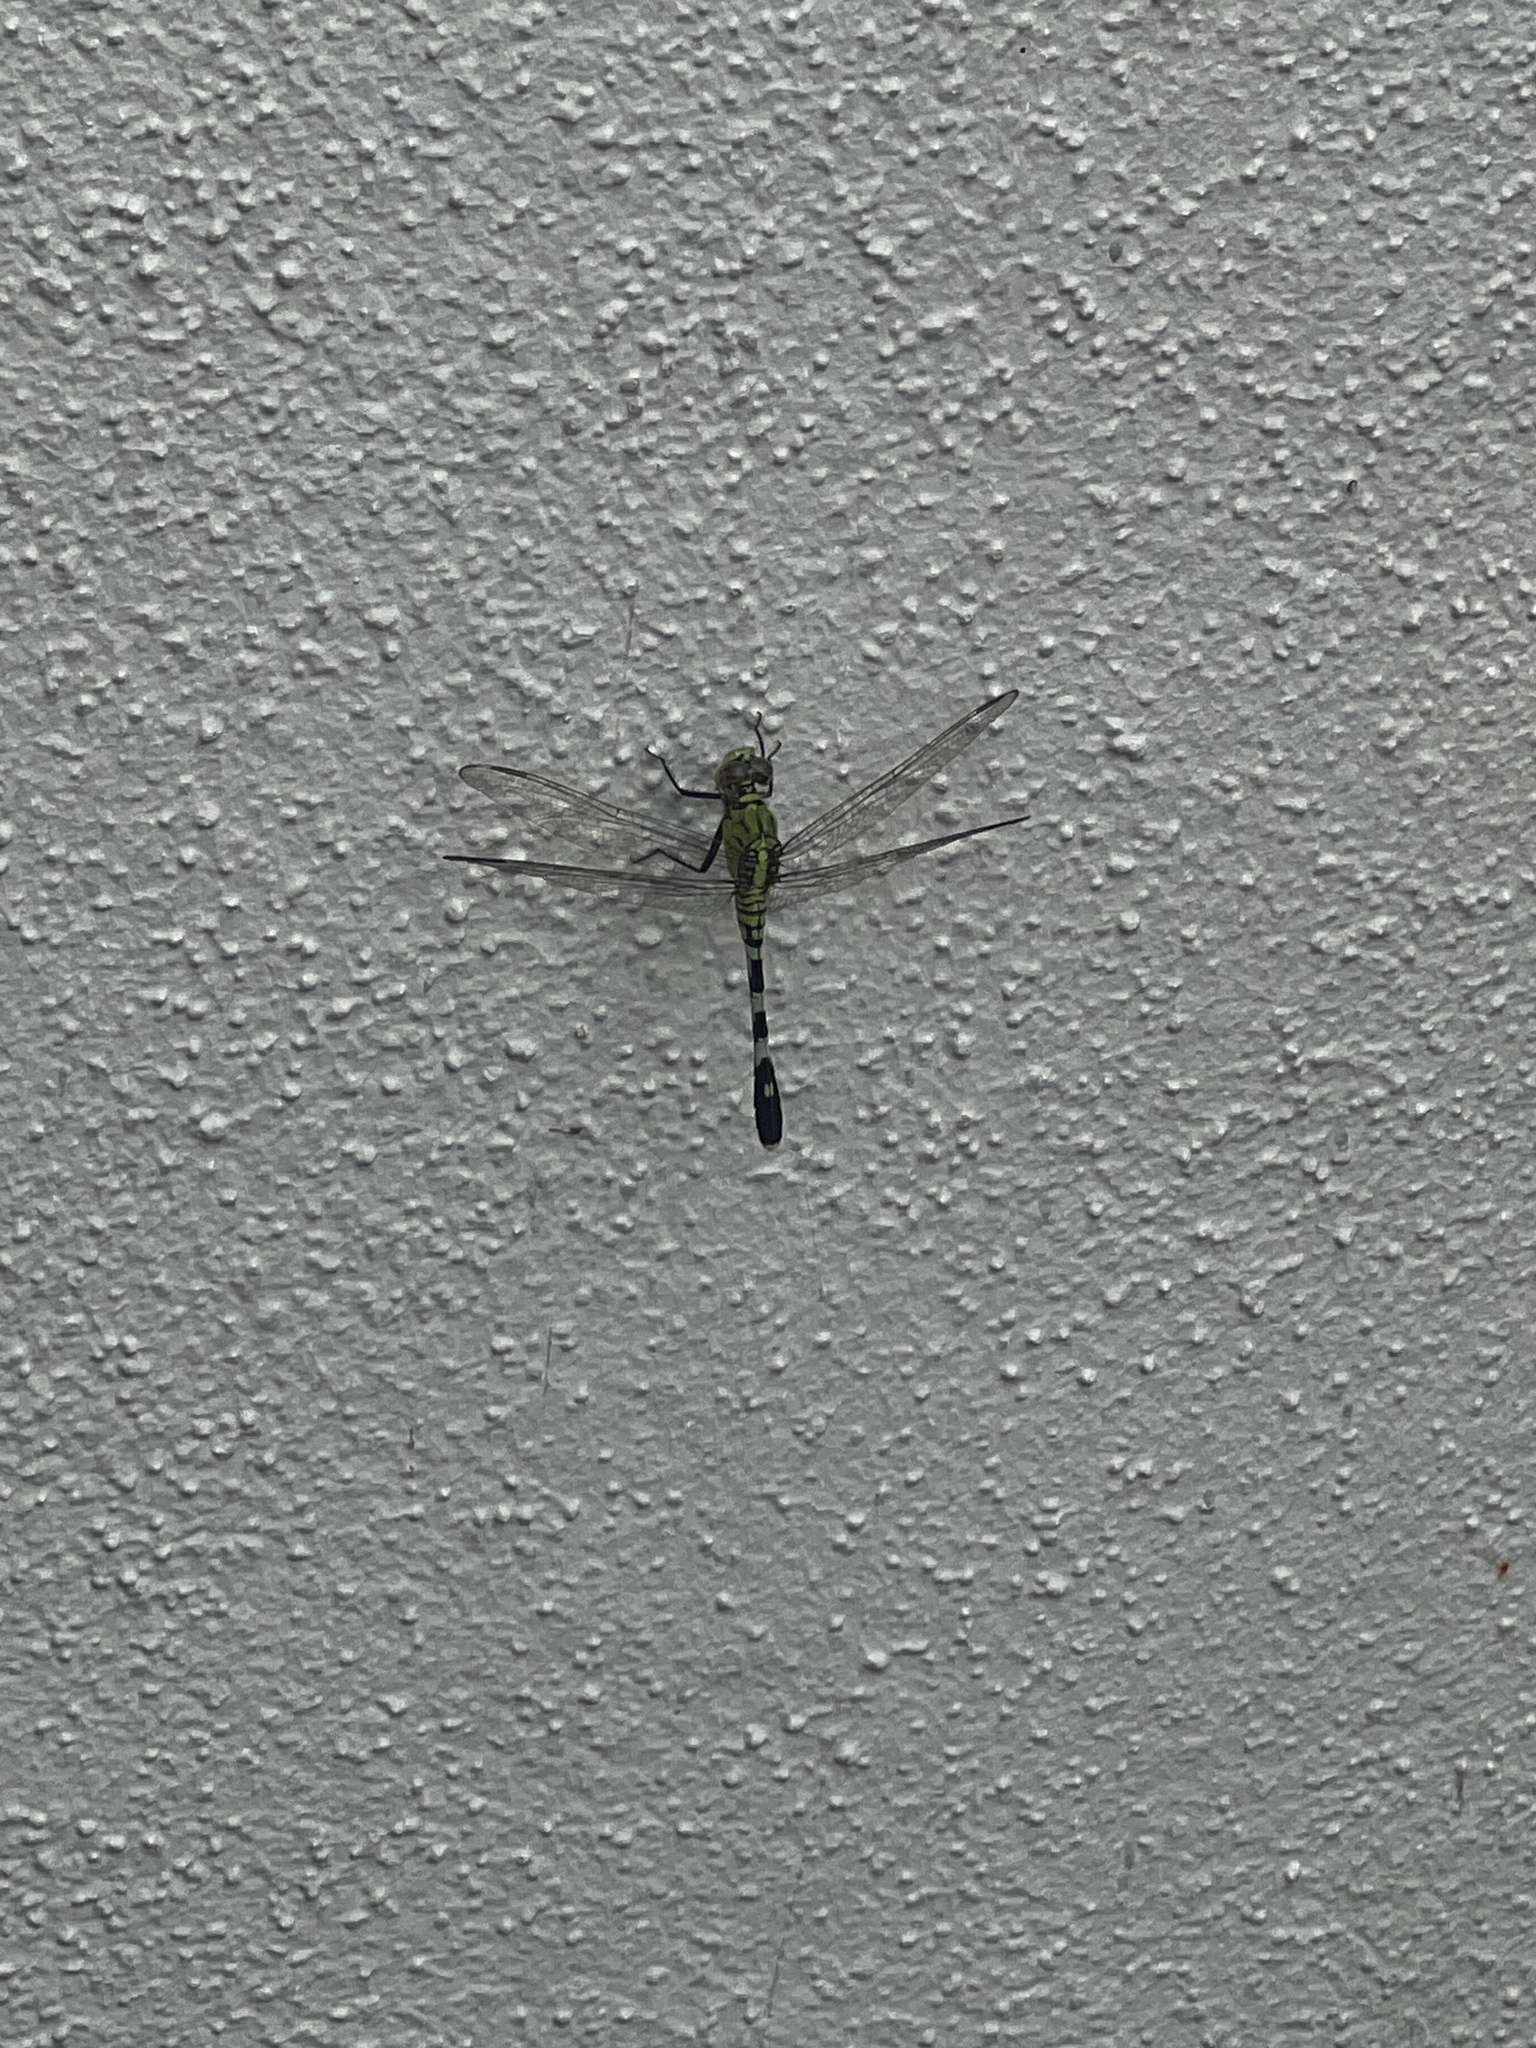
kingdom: Animalia
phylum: Arthropoda
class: Insecta
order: Odonata
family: Libellulidae
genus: Erythemis
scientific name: Erythemis simplicicollis
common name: Eastern pondhawk
